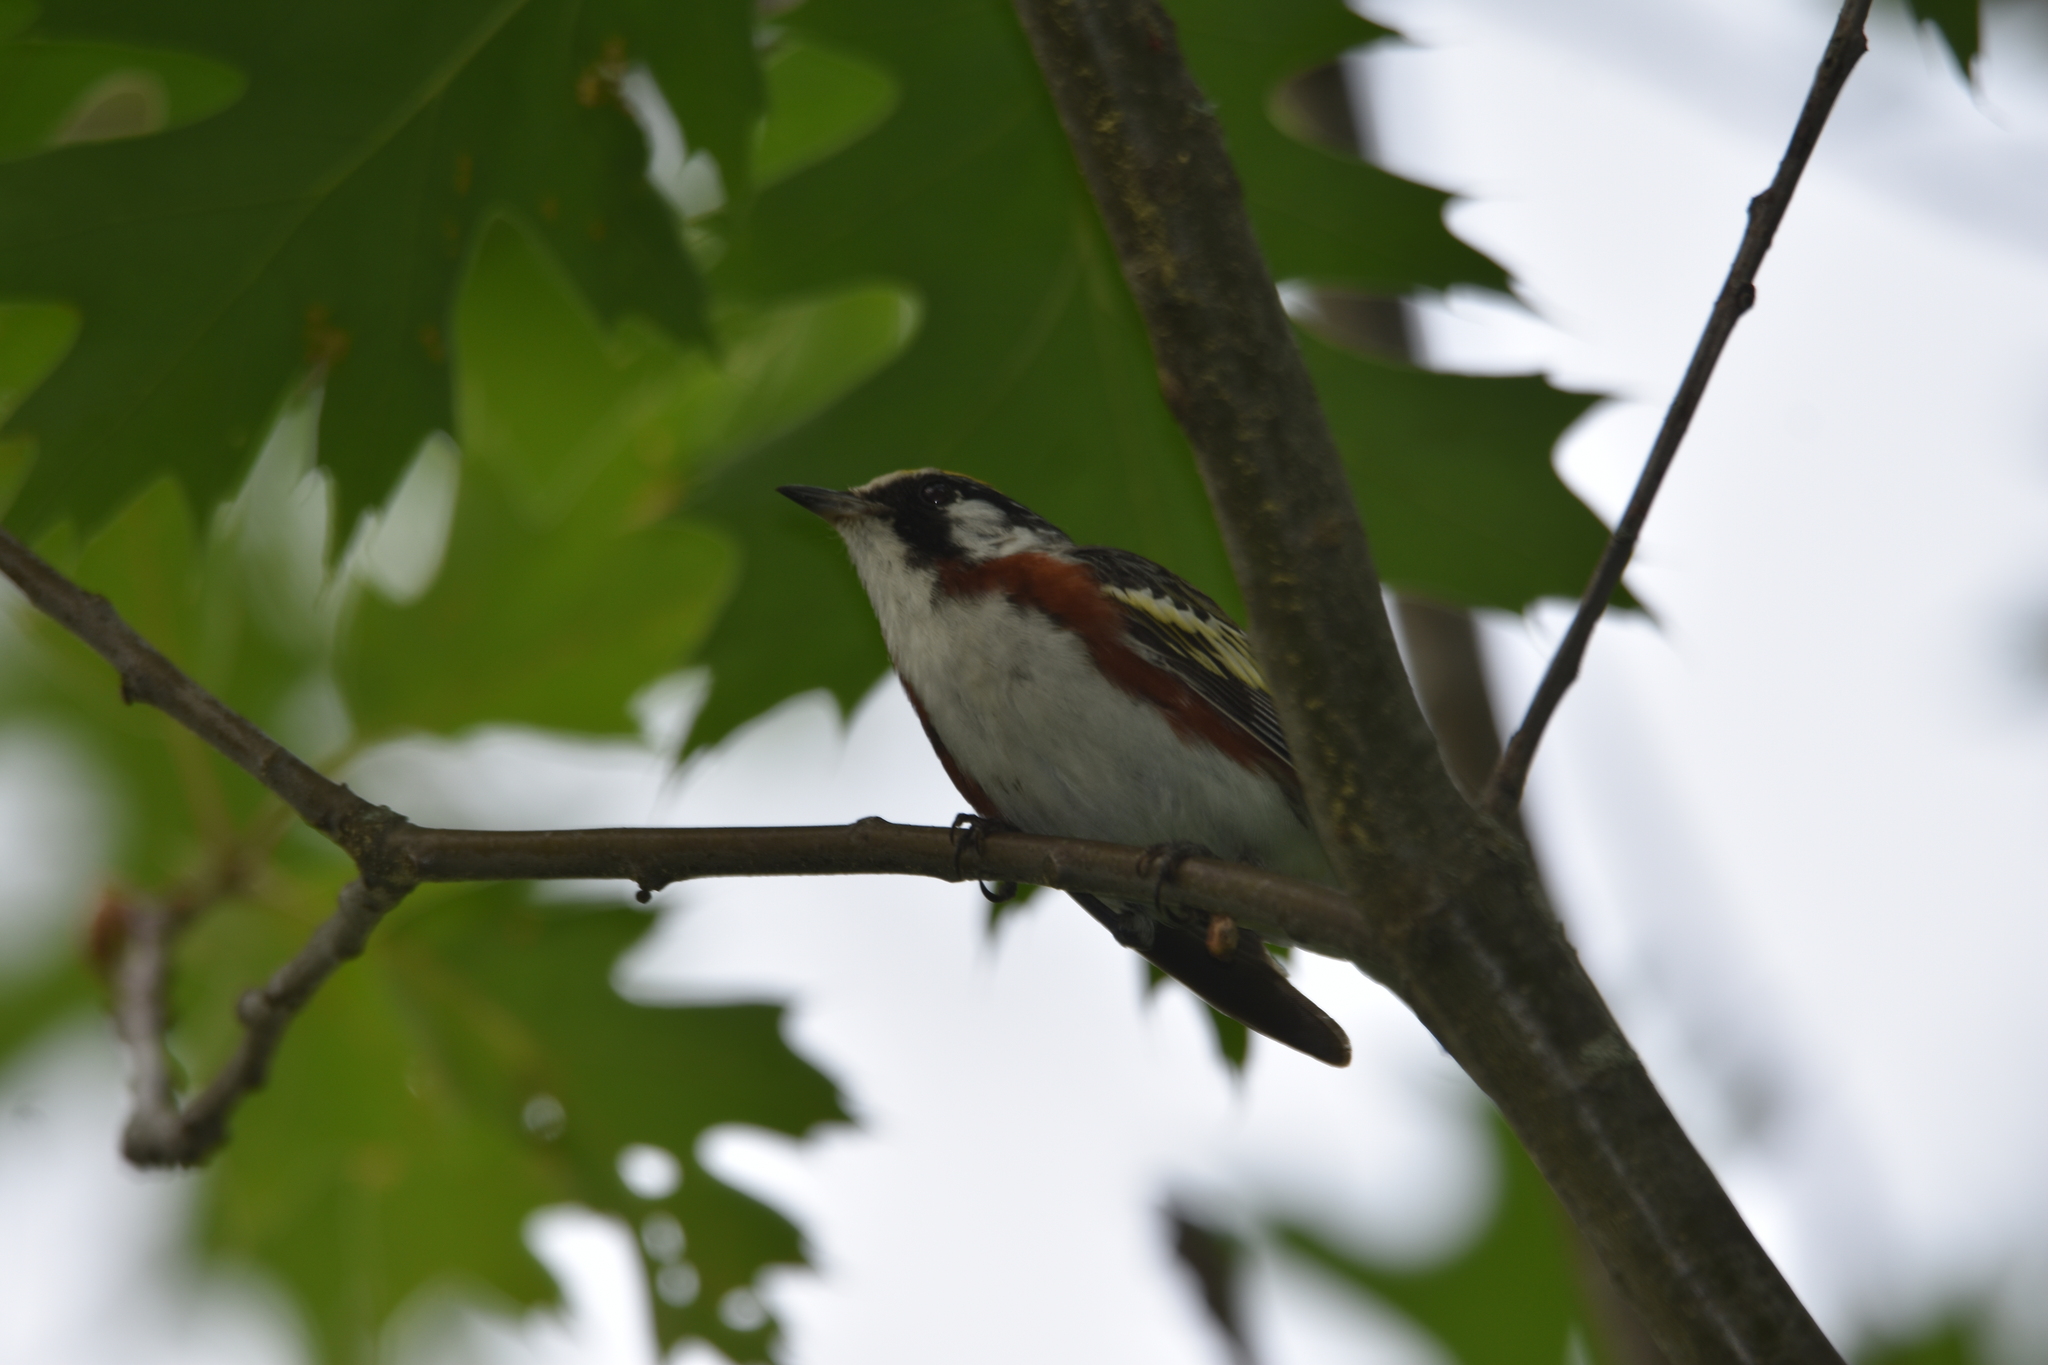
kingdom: Animalia
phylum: Chordata
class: Aves
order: Passeriformes
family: Parulidae
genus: Setophaga
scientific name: Setophaga pensylvanica
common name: Chestnut-sided warbler
